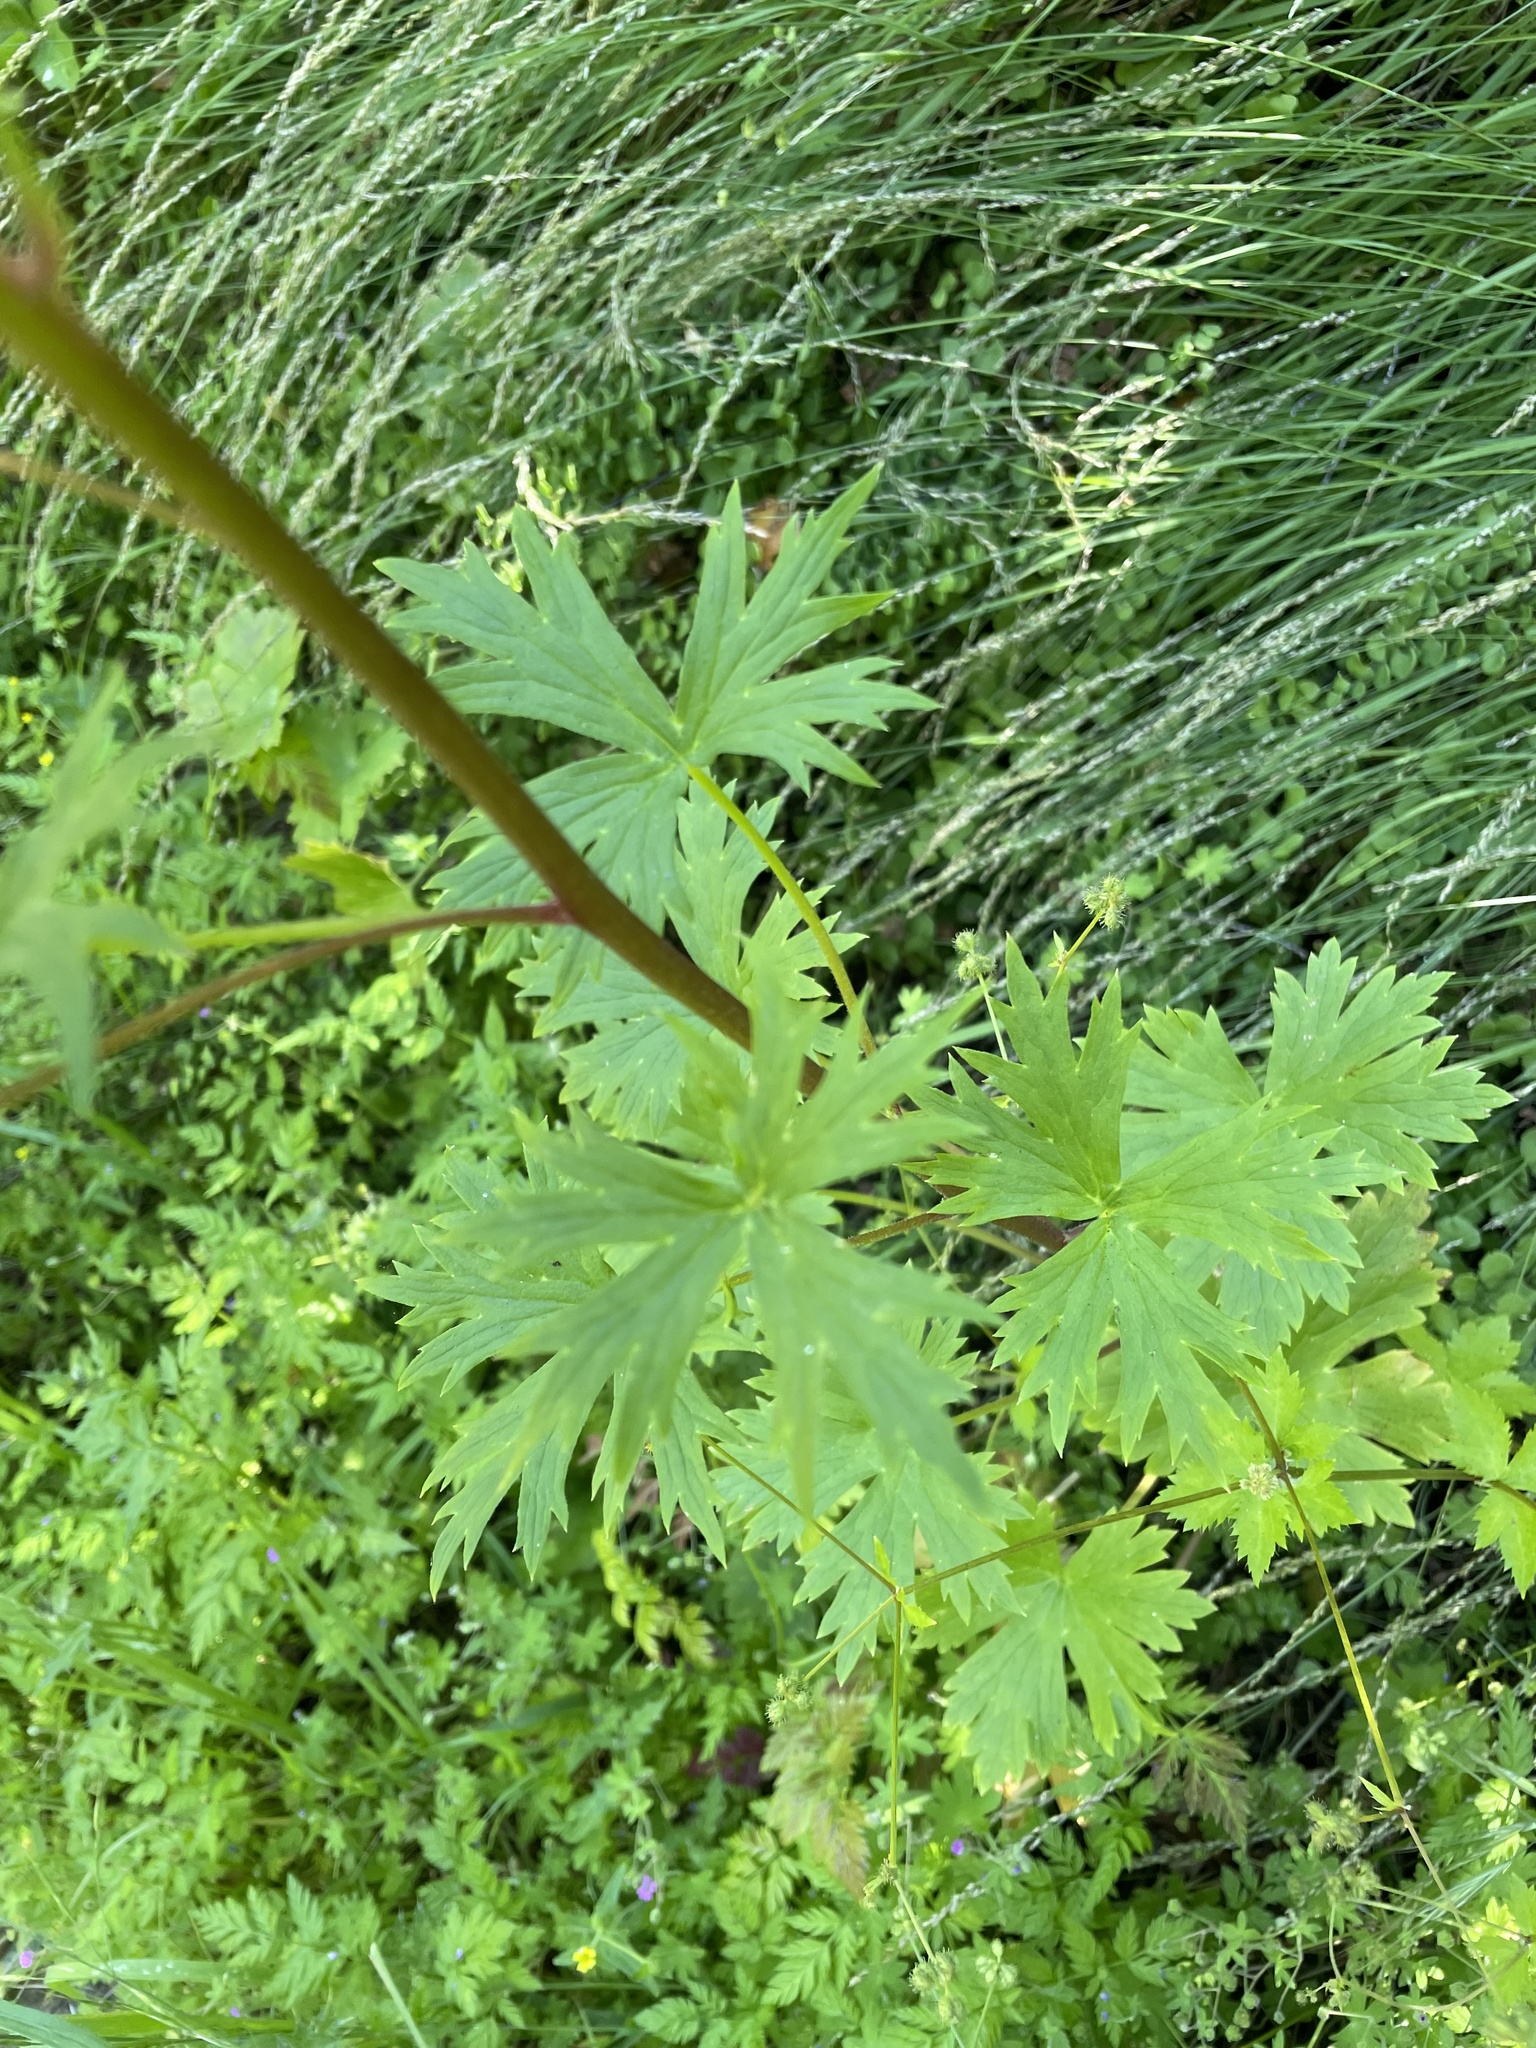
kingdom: Plantae
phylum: Tracheophyta
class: Magnoliopsida
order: Ranunculales
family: Ranunculaceae
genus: Delphinium
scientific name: Delphinium californicum
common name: California larkspur
